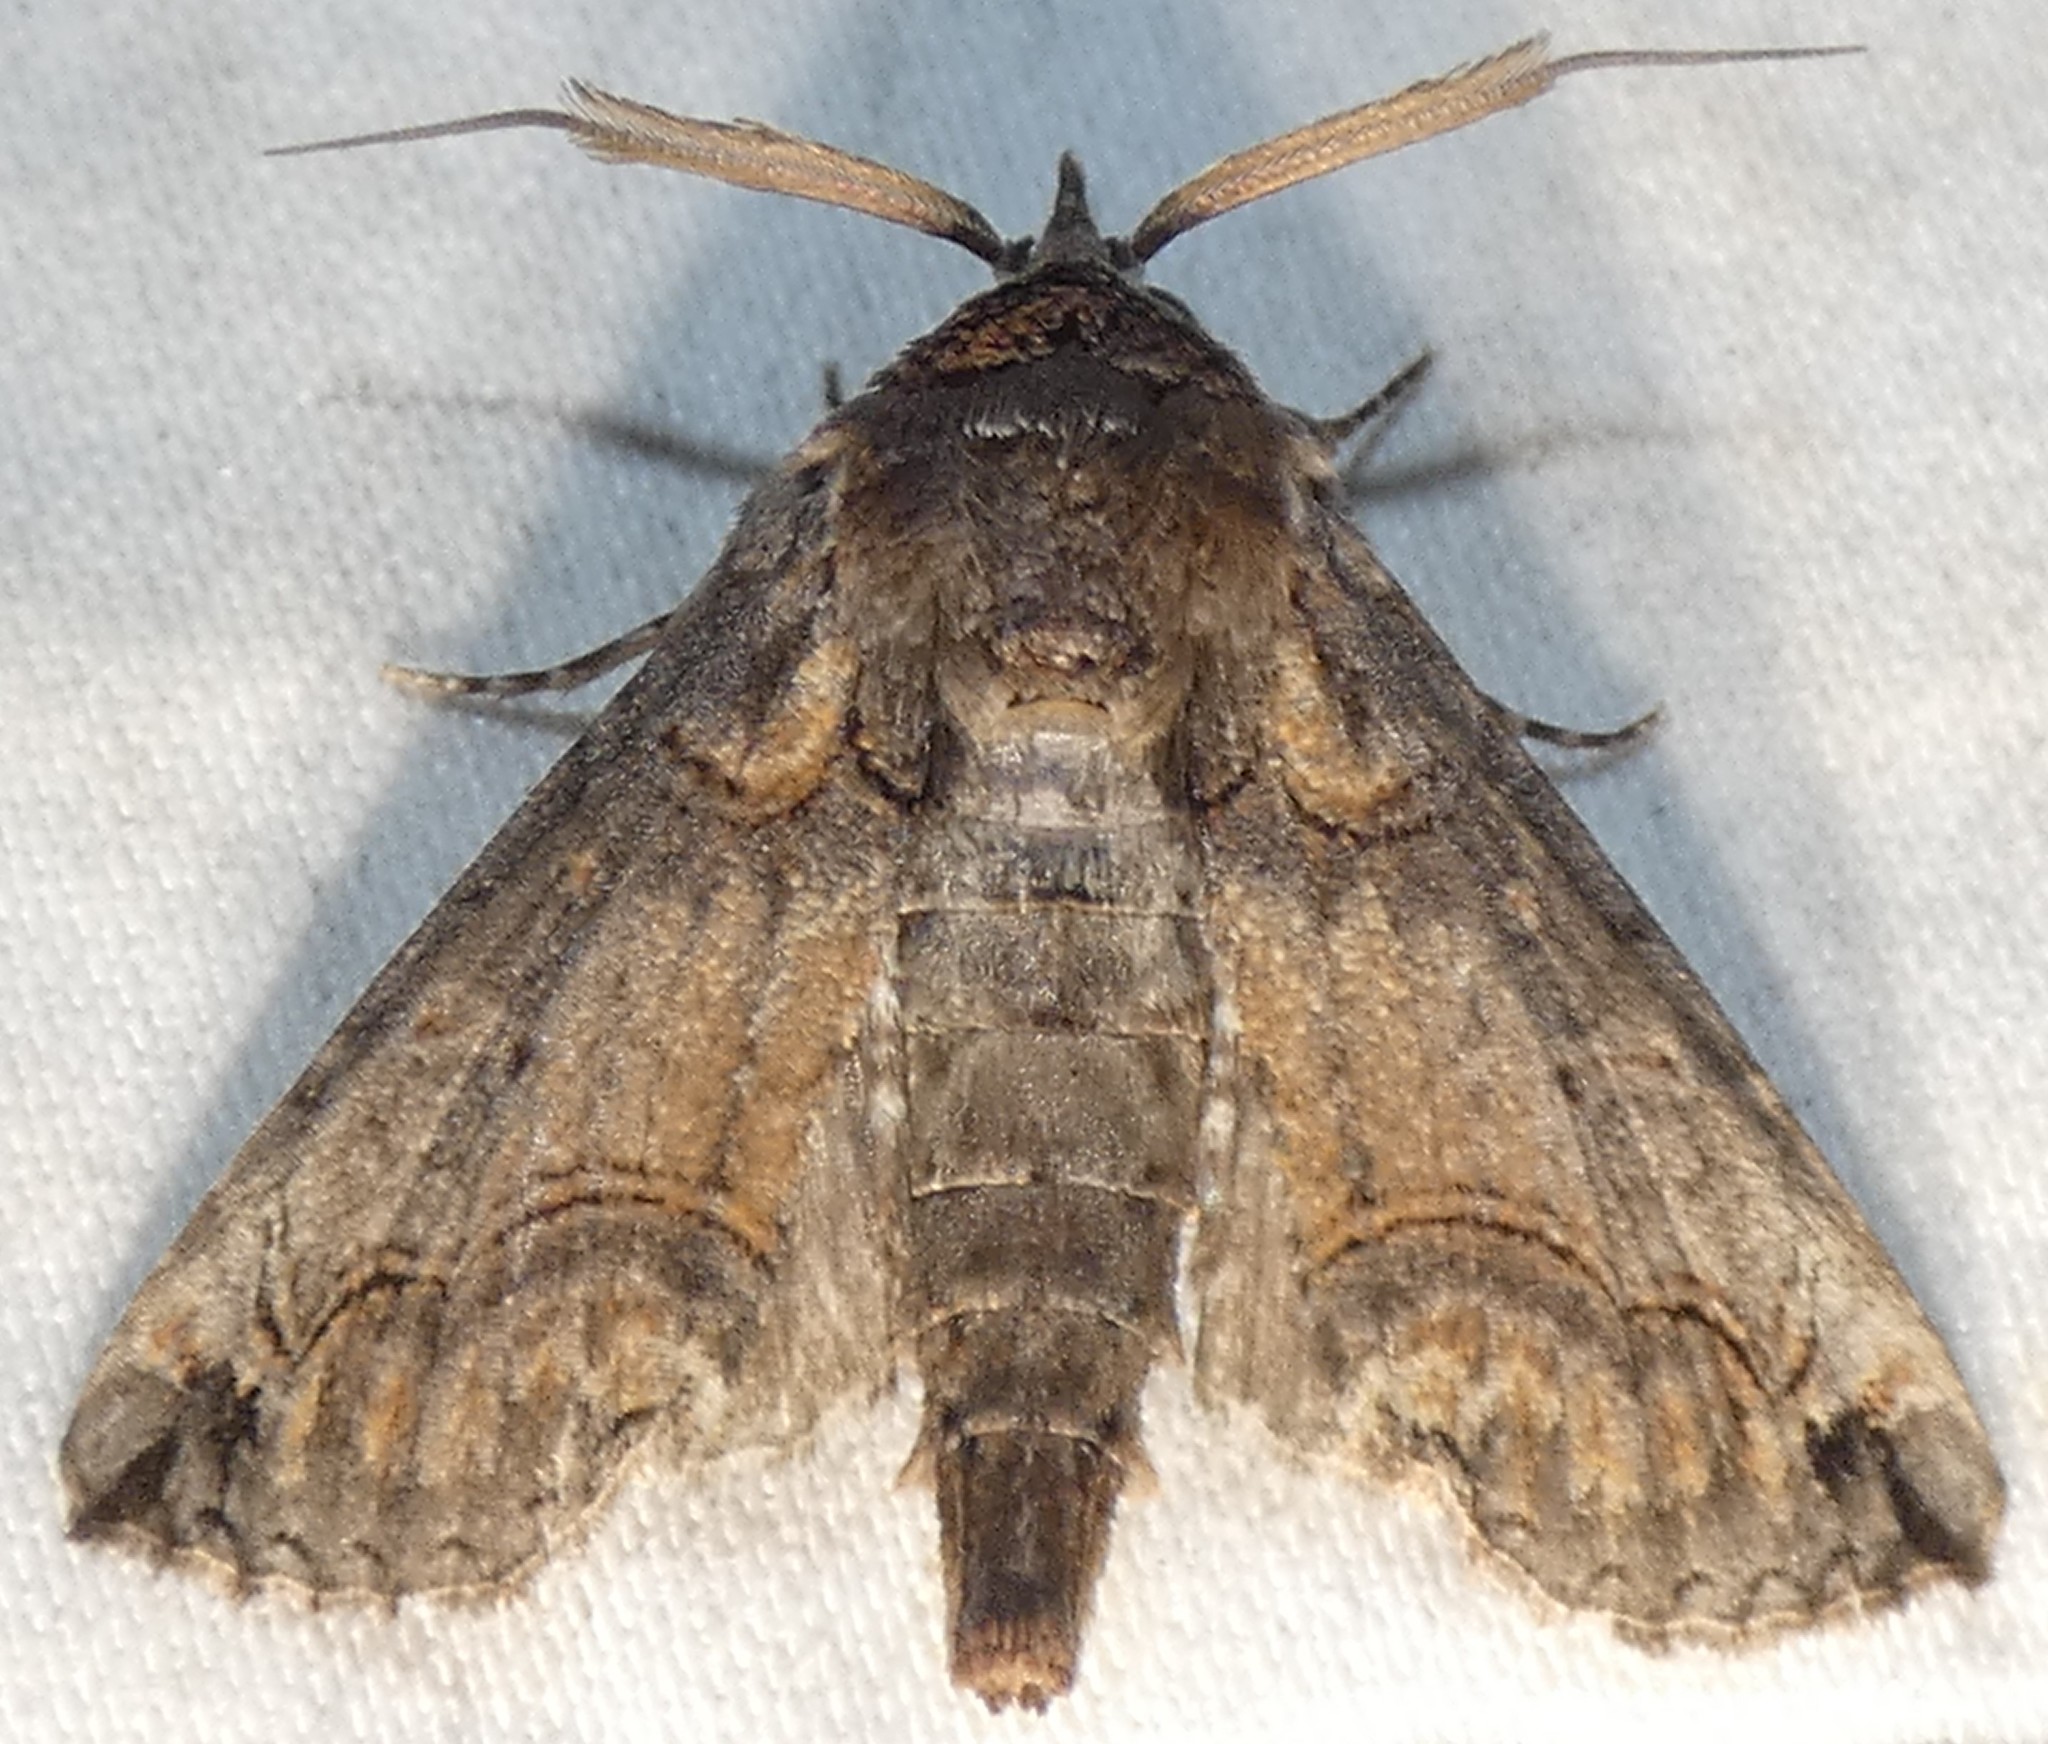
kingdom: Animalia
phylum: Arthropoda
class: Insecta
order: Lepidoptera
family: Euteliidae
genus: Paectes
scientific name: Paectes abrostoloides
